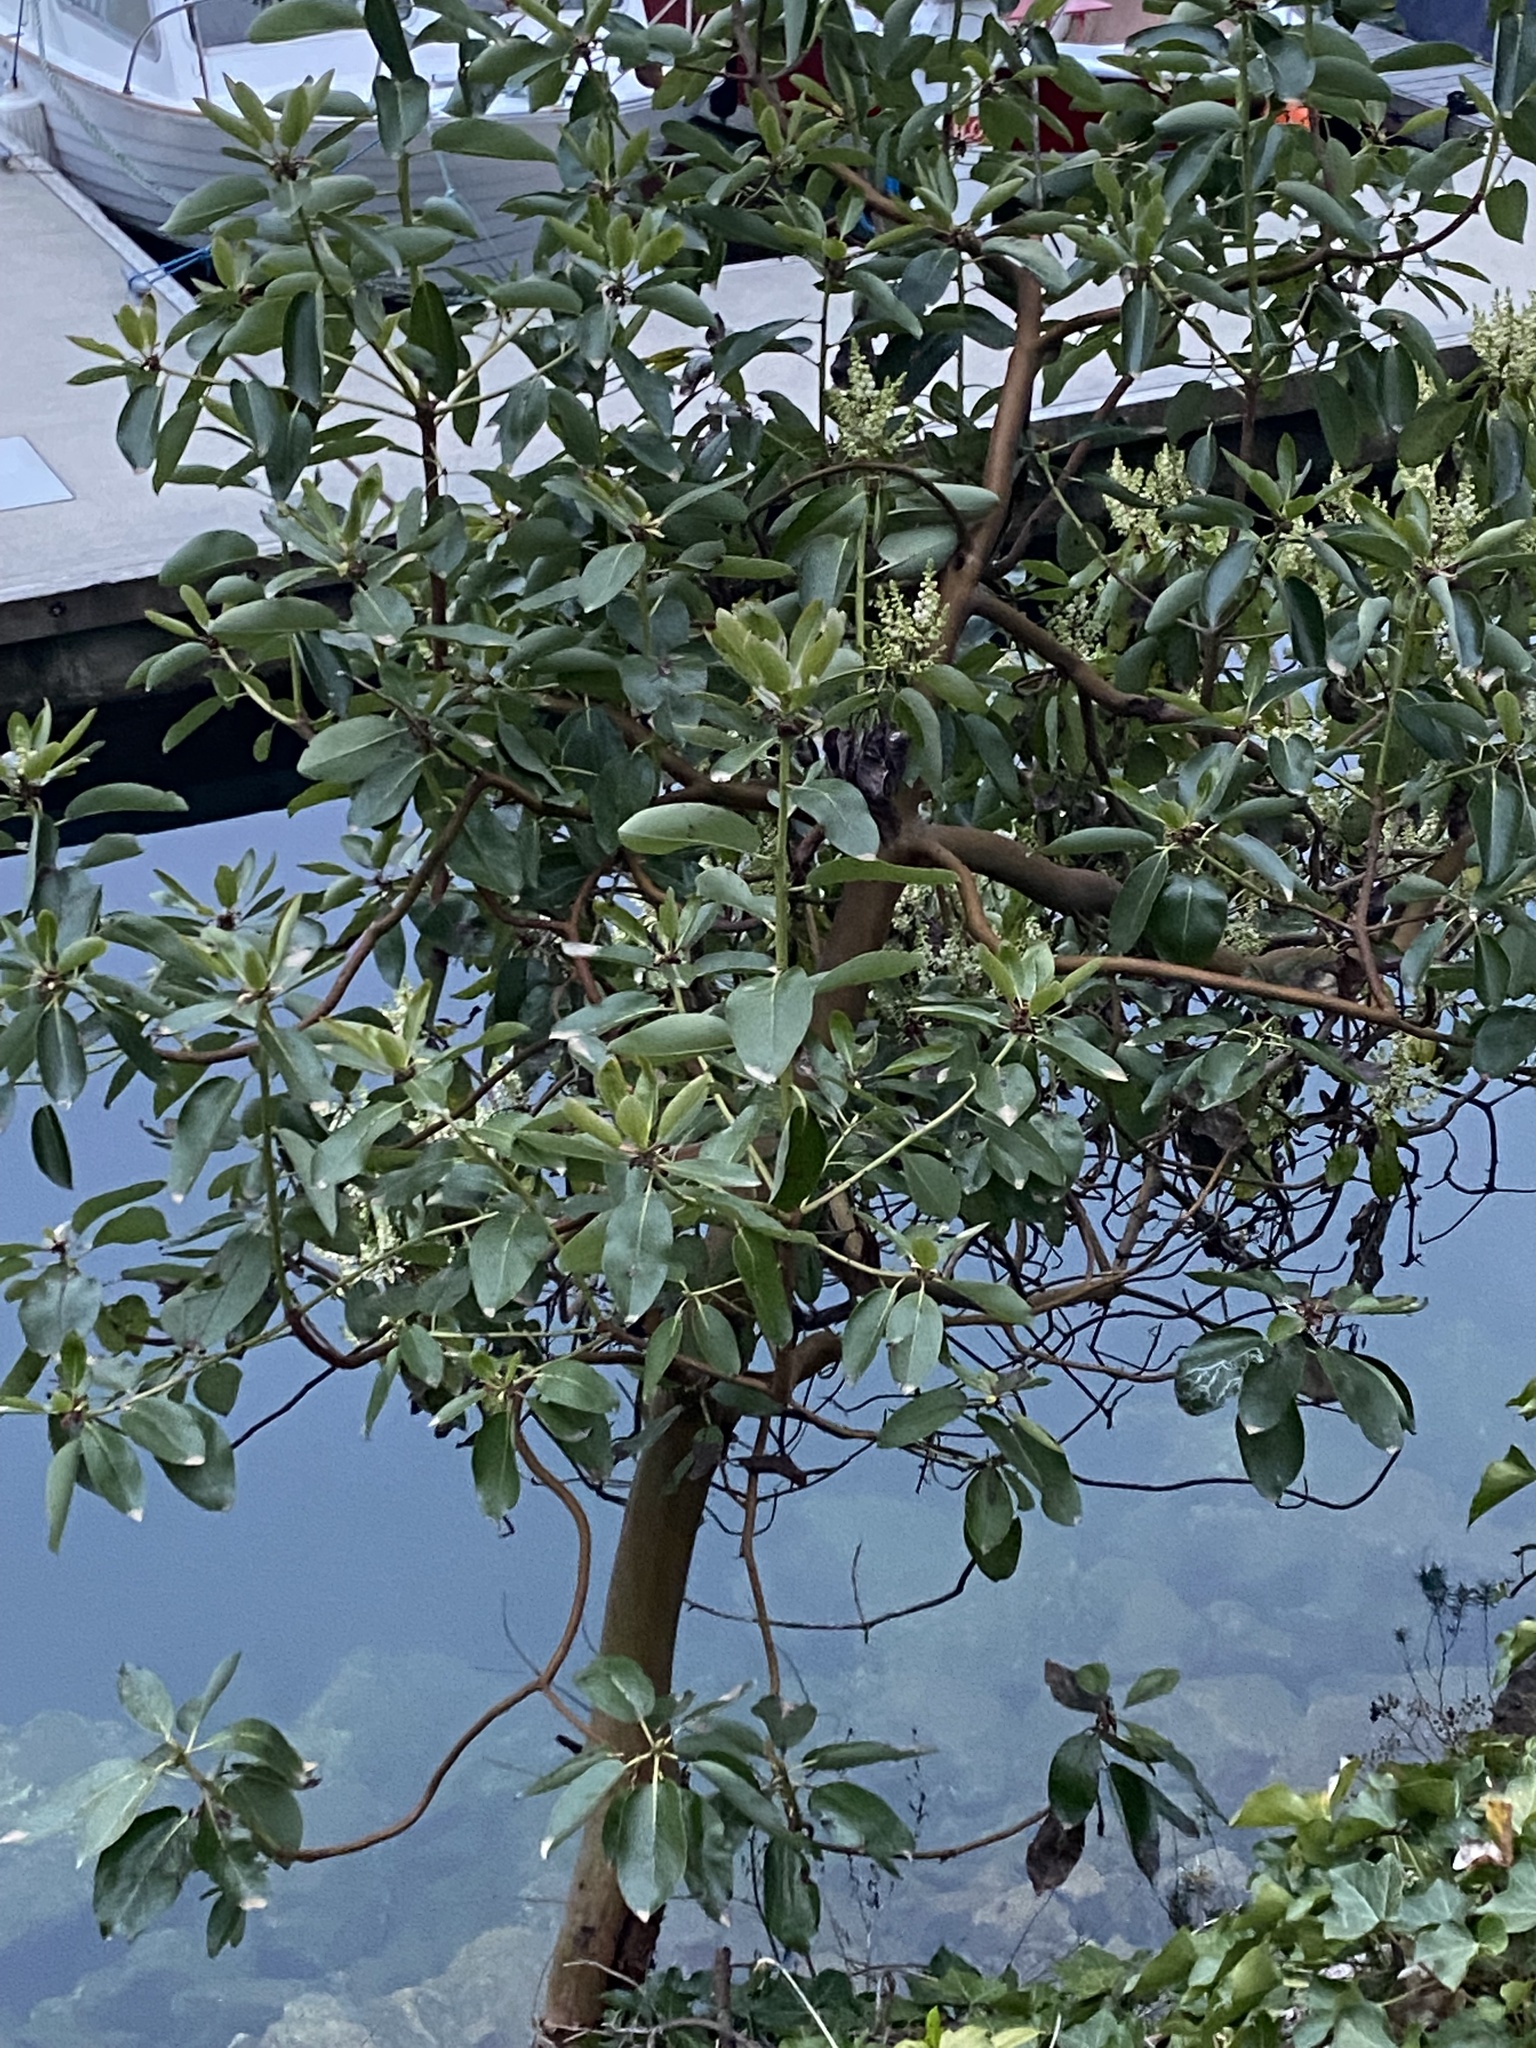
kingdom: Plantae
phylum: Tracheophyta
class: Magnoliopsida
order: Ericales
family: Ericaceae
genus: Arbutus
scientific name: Arbutus menziesii
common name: Pacific madrone
